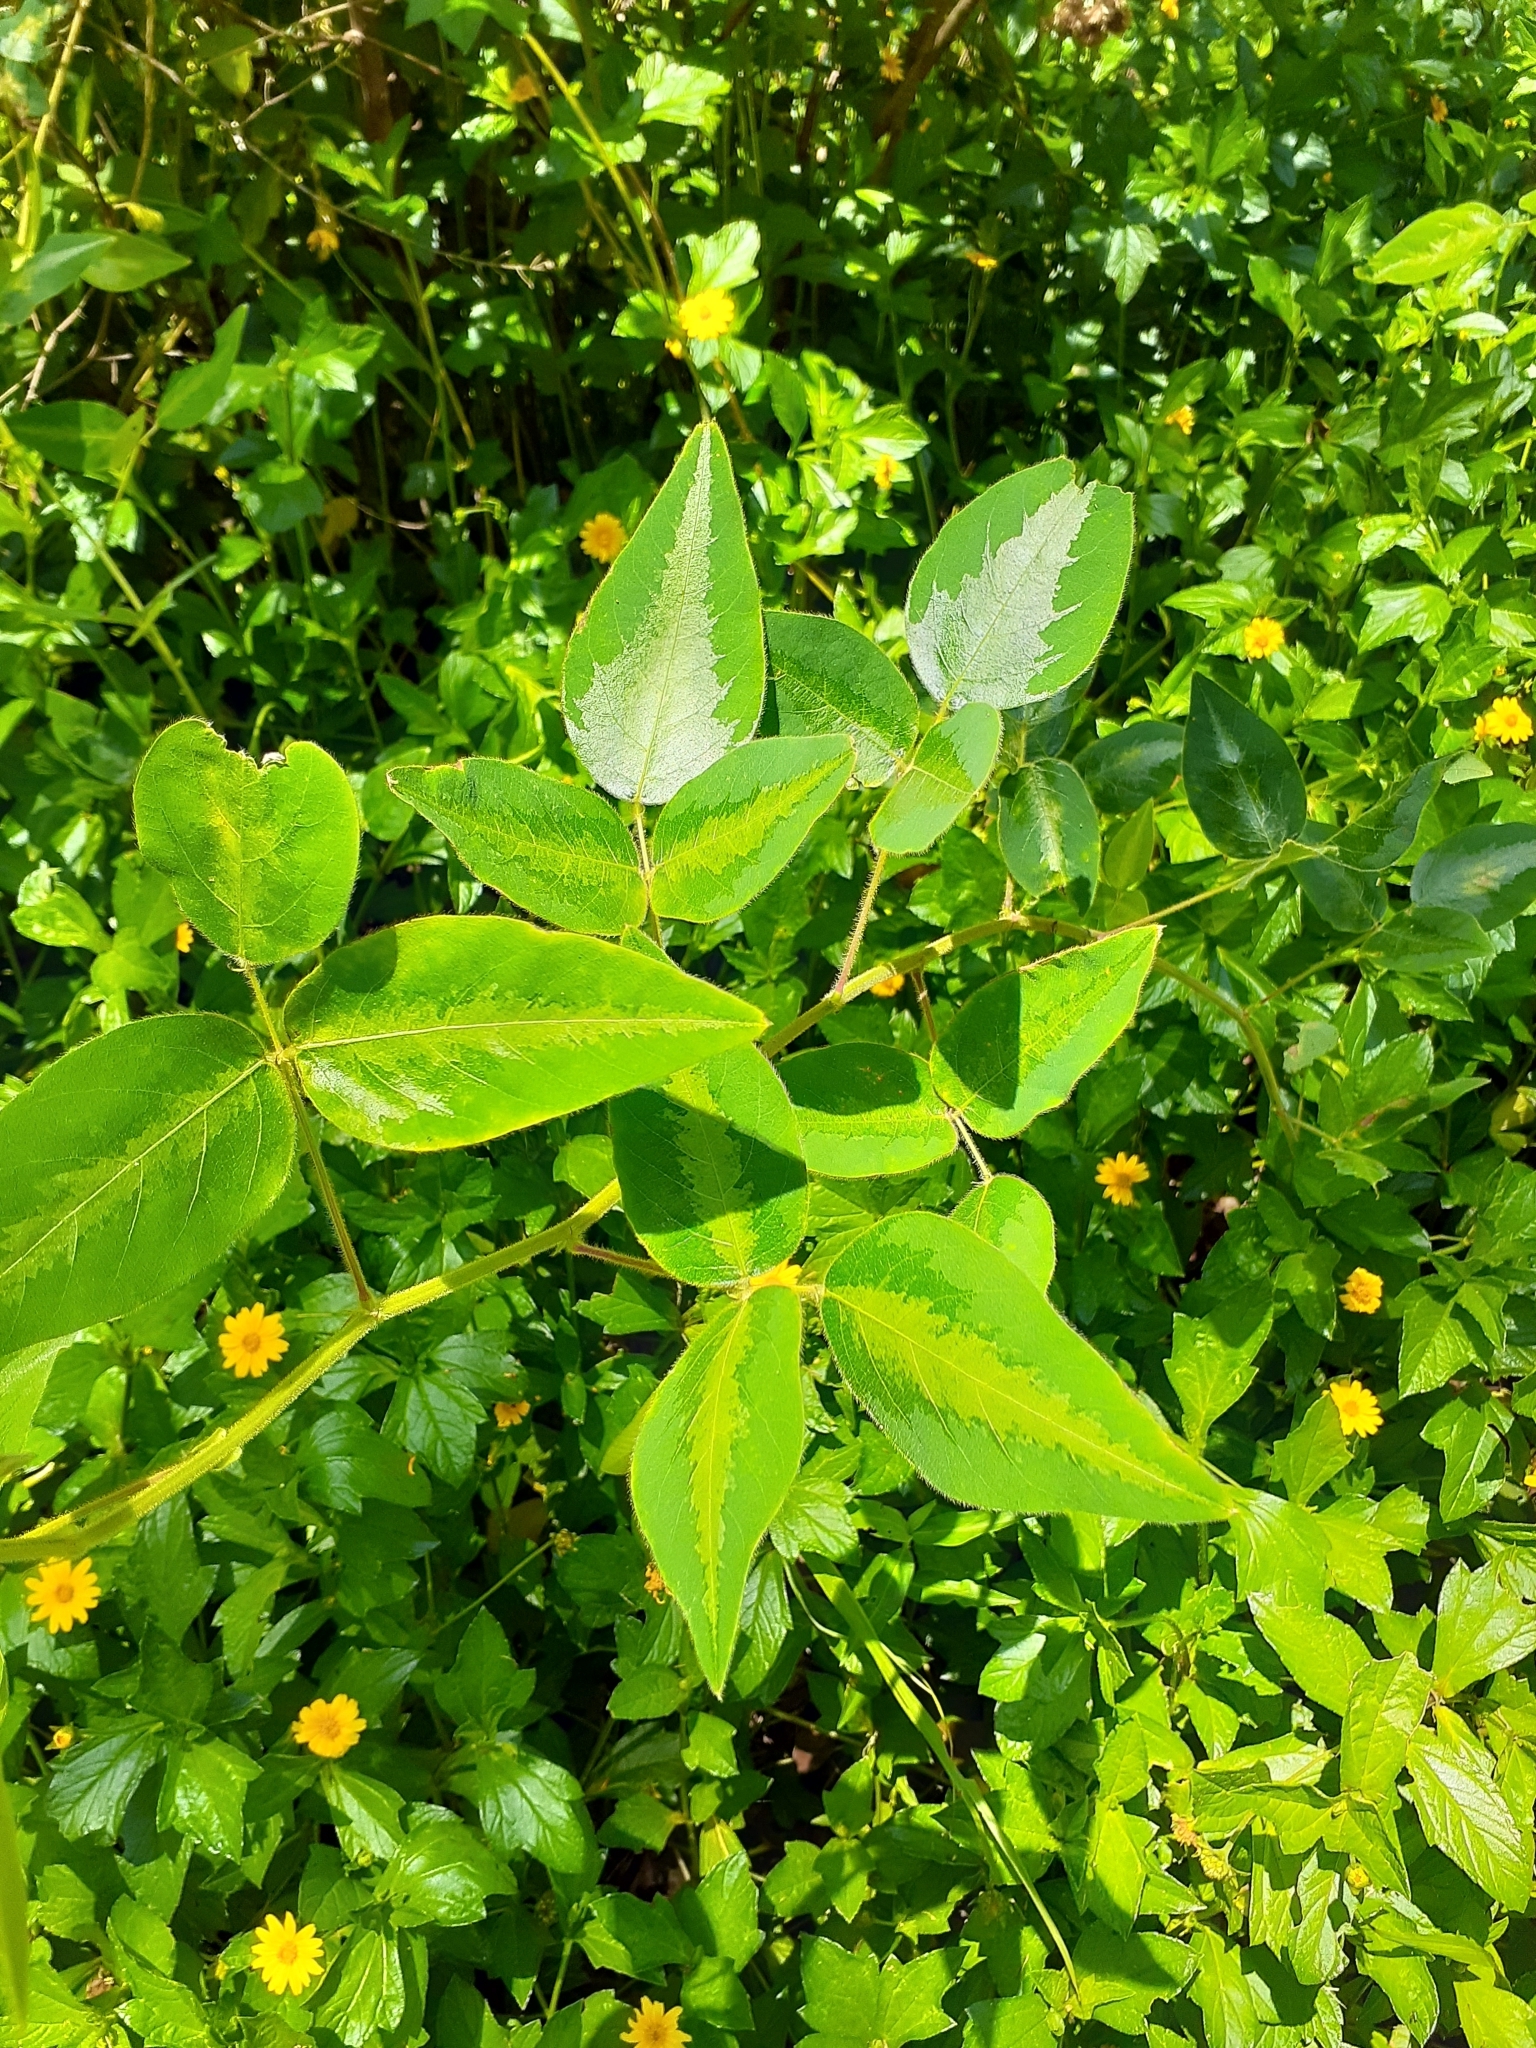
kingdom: Plantae
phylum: Tracheophyta
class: Magnoliopsida
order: Fabales
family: Fabaceae
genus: Desmodium
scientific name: Desmodium uncinatum
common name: Silverleaf desmodium
